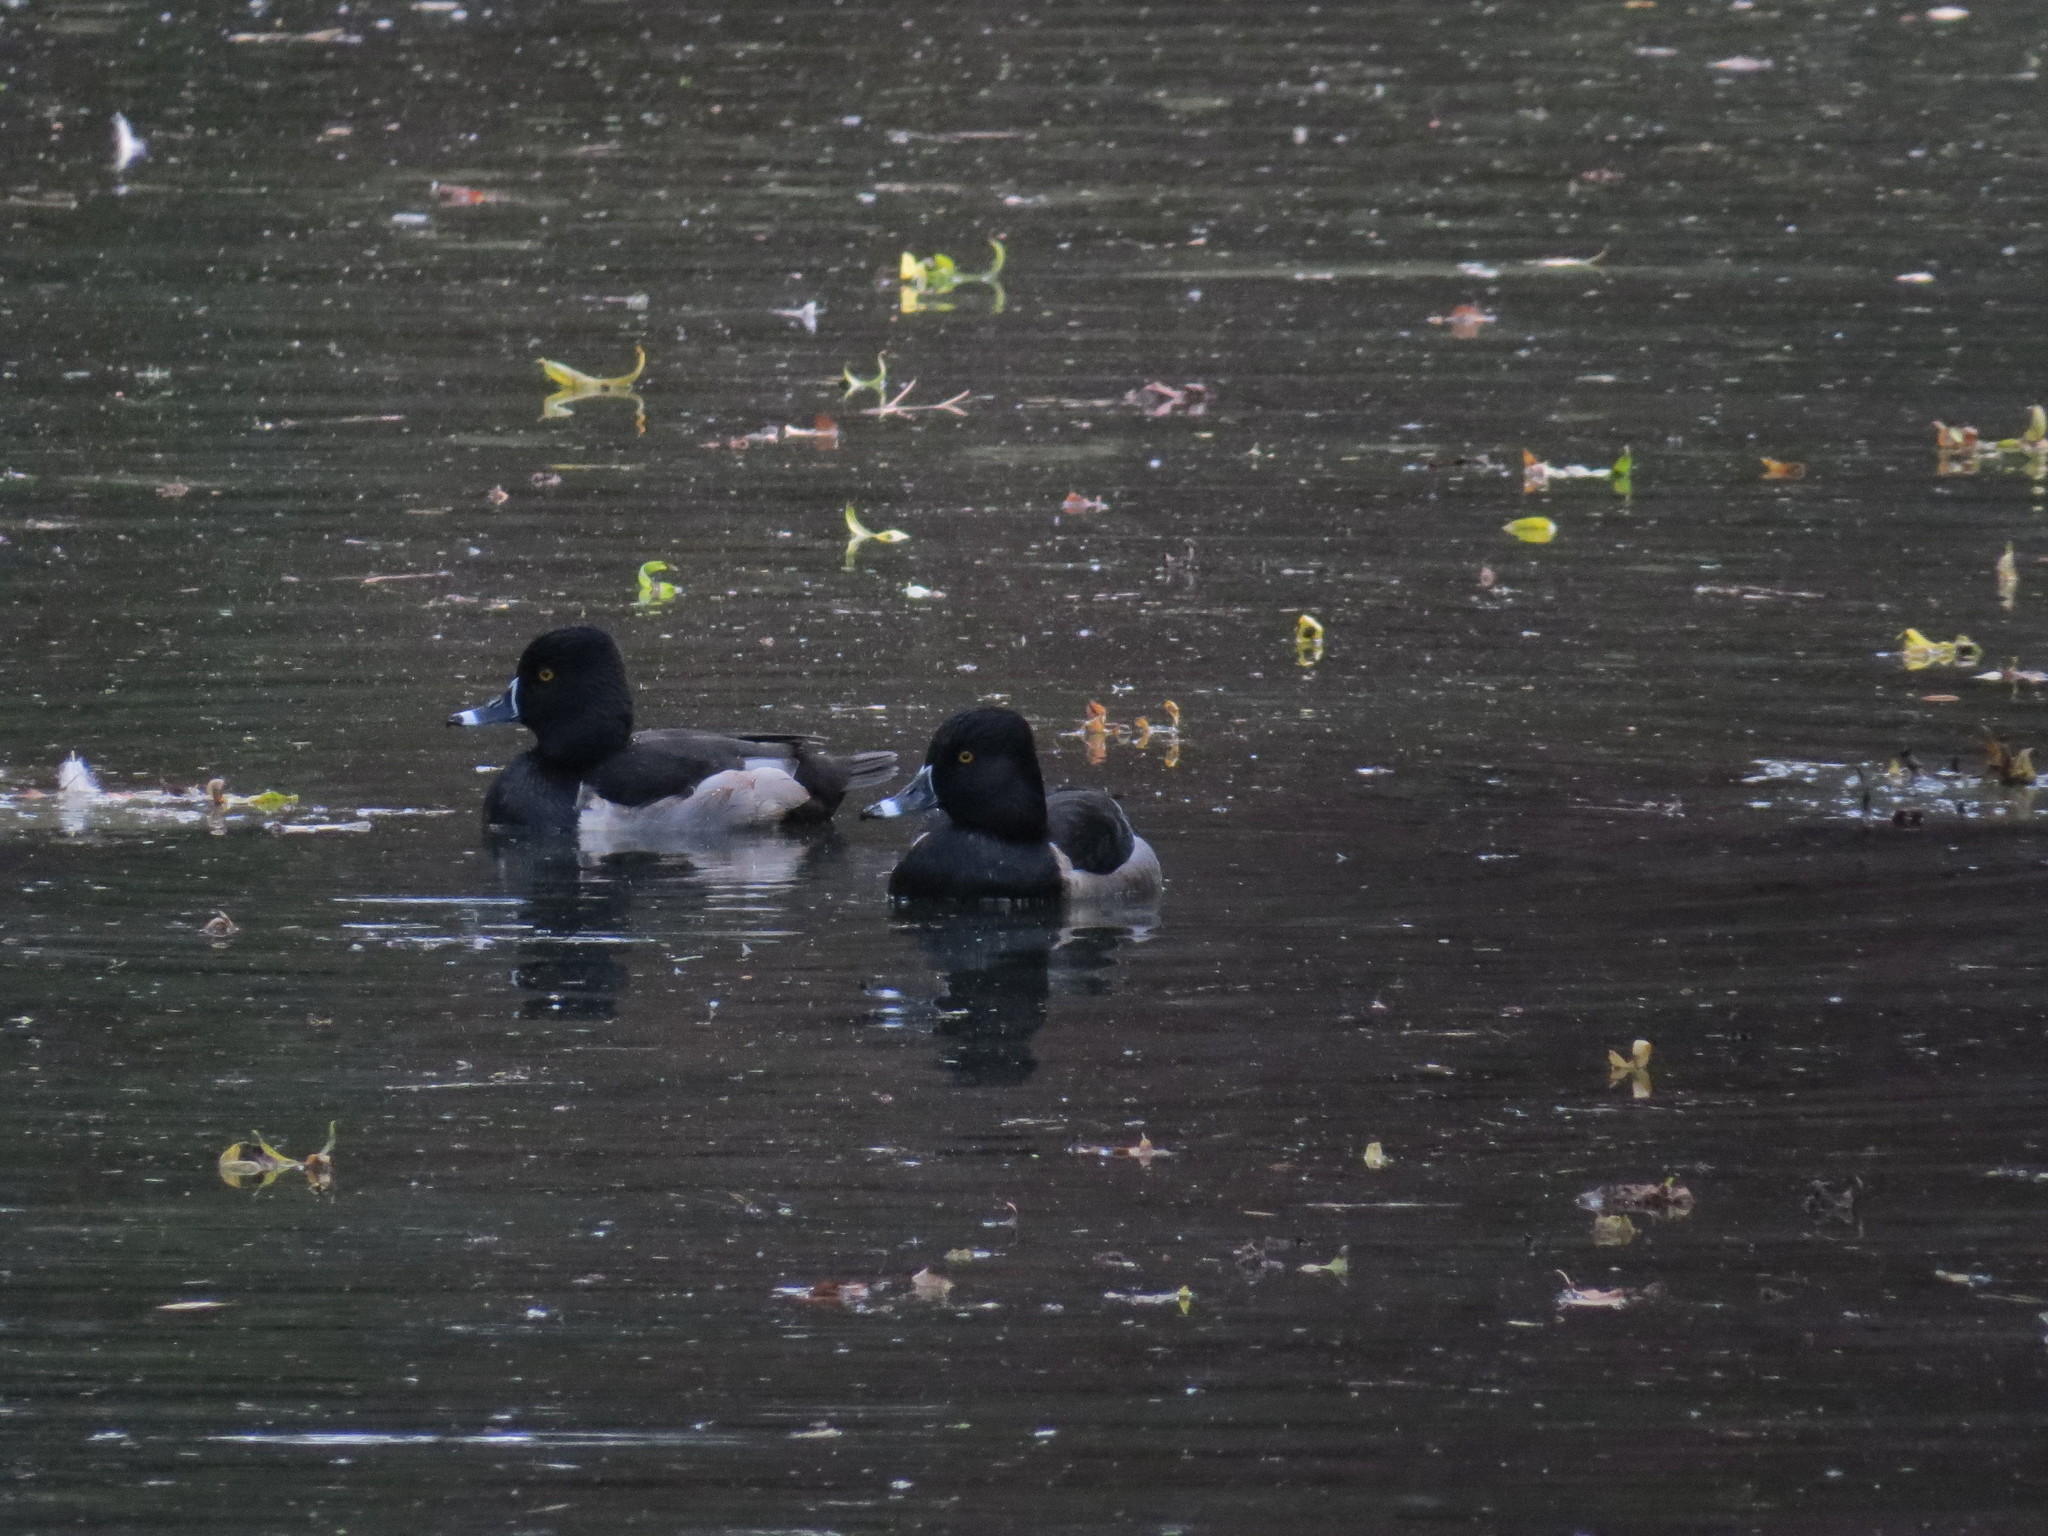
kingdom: Animalia
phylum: Chordata
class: Aves
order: Anseriformes
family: Anatidae
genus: Aythya
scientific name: Aythya collaris
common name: Ring-necked duck
